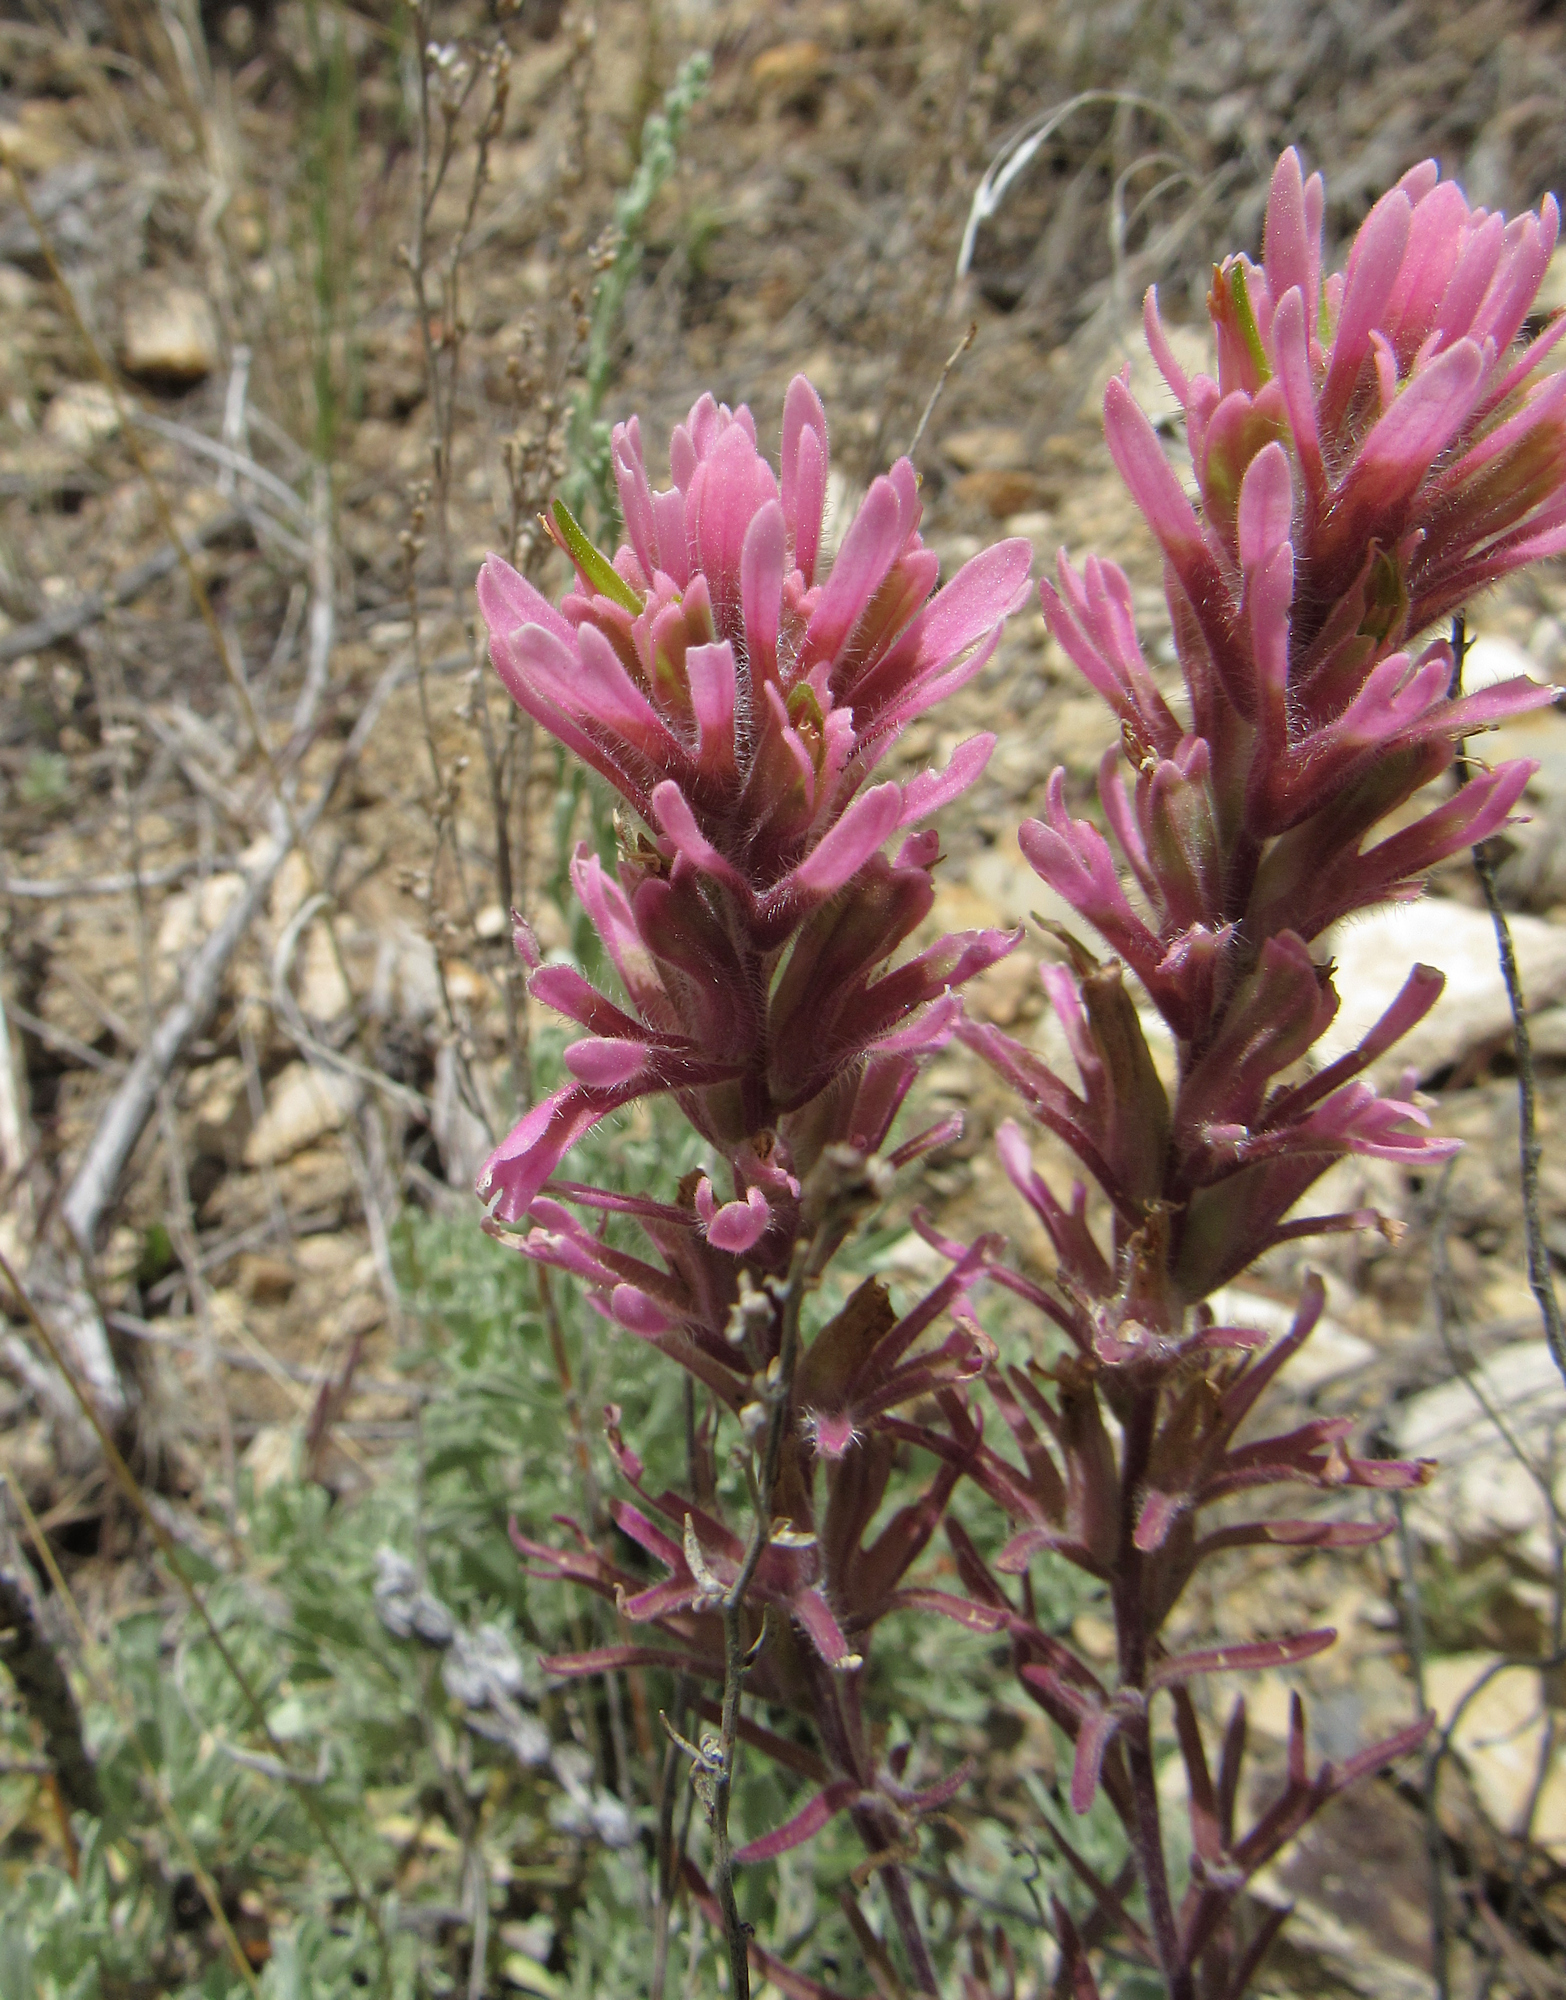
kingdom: Plantae
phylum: Tracheophyta
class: Magnoliopsida
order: Lamiales
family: Orobanchaceae
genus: Castilleja
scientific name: Castilleja angustifolia
